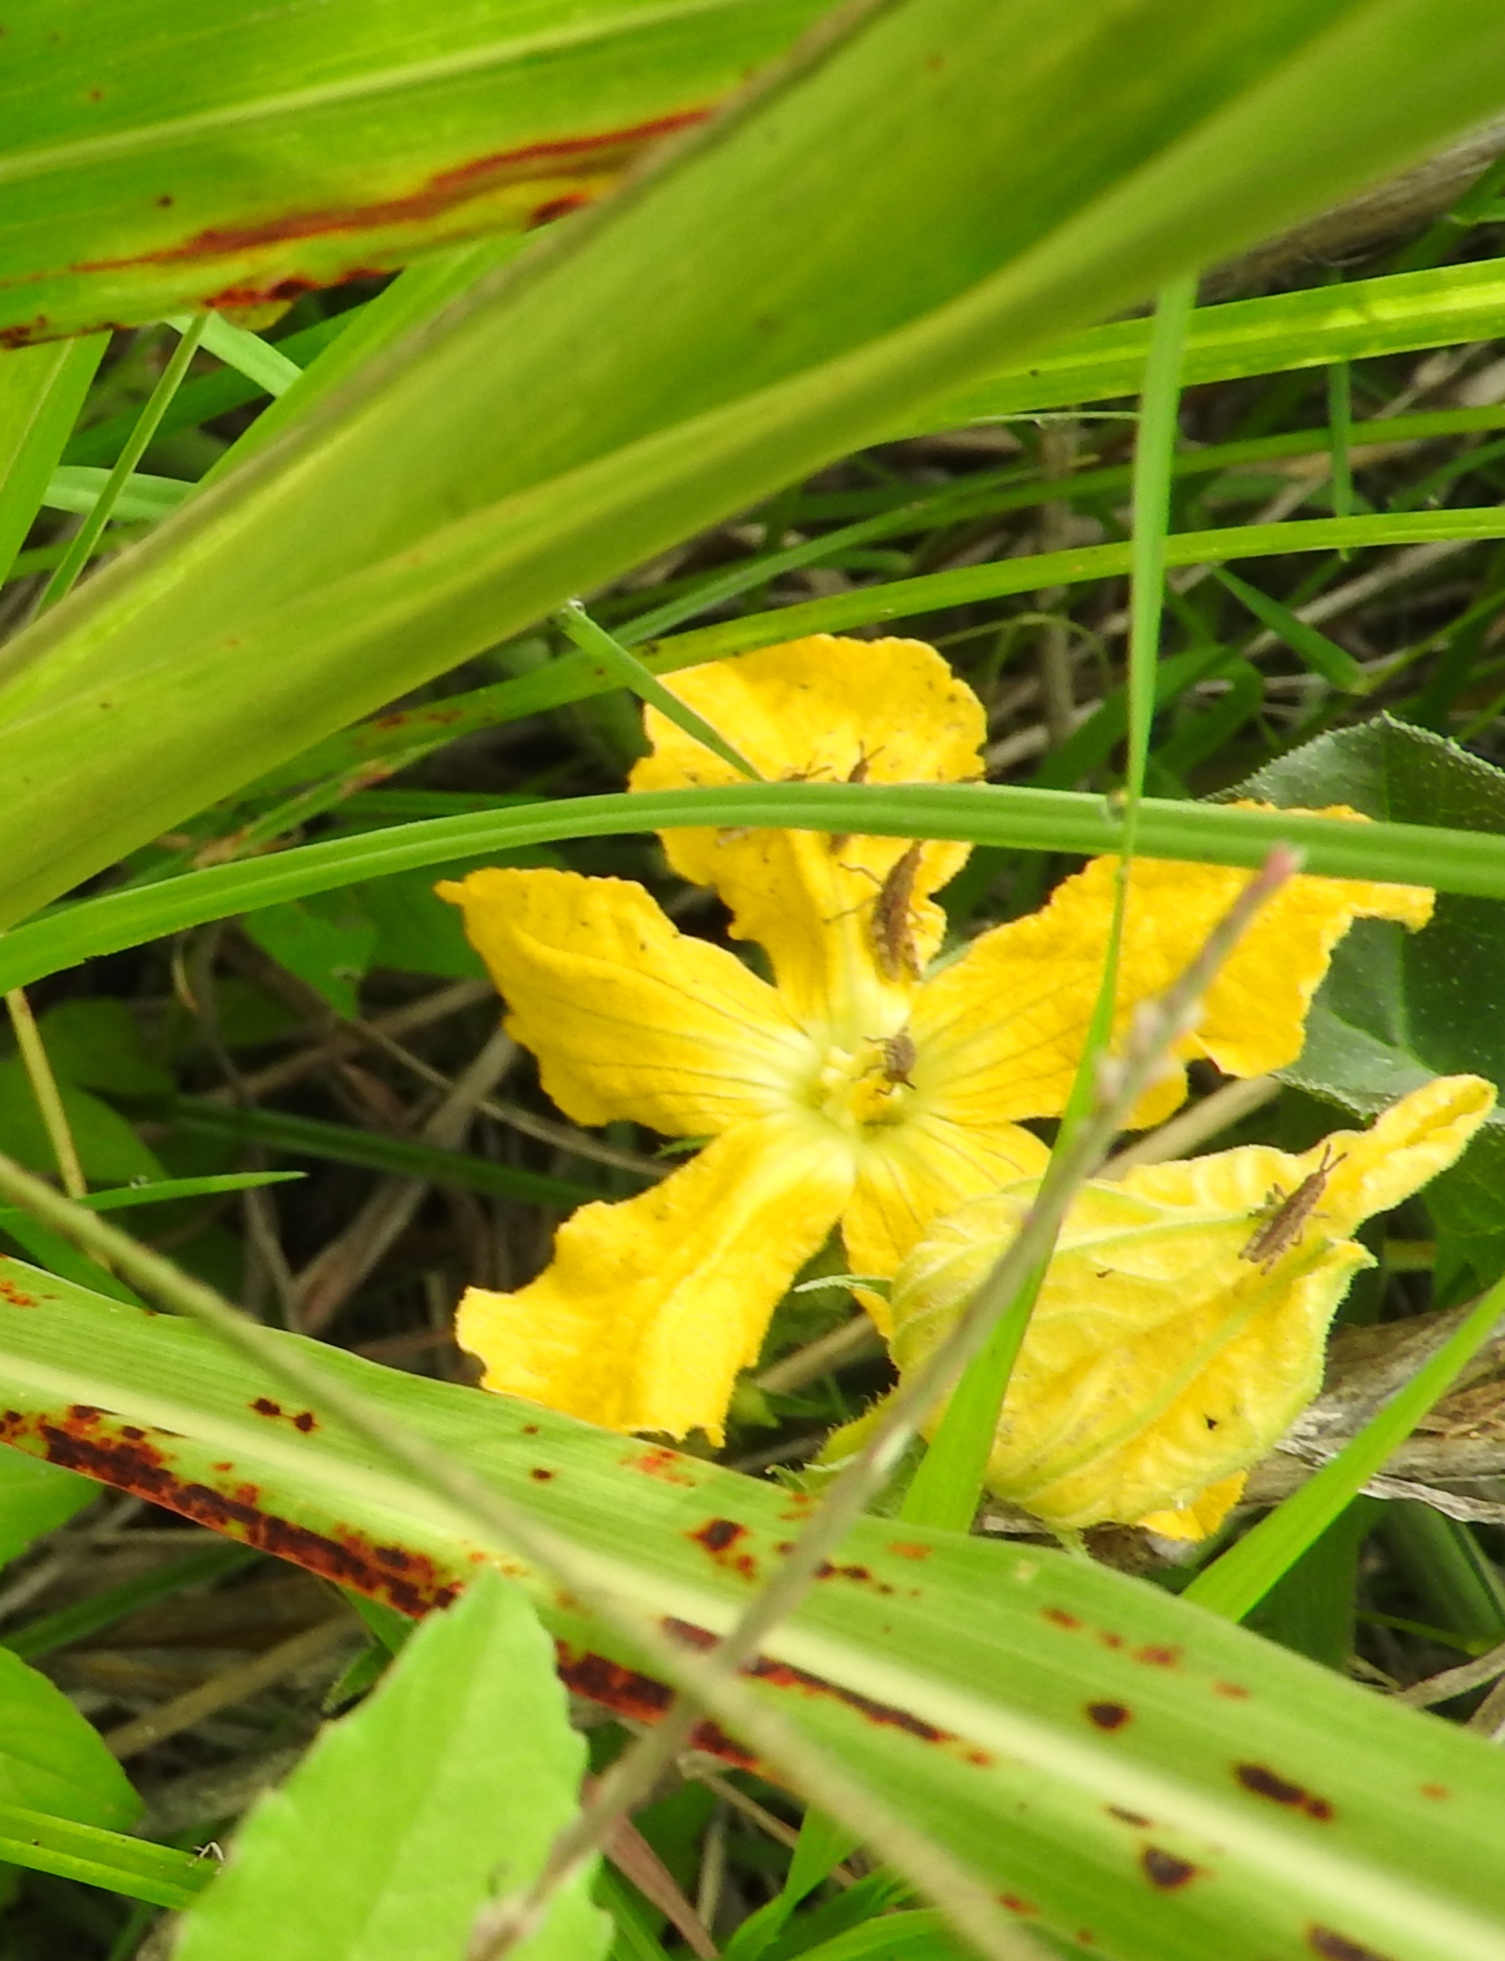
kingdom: Plantae
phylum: Tracheophyta
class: Magnoliopsida
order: Cucurbitales
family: Cucurbitaceae
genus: Apodanthera
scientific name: Apodanthera aspera
